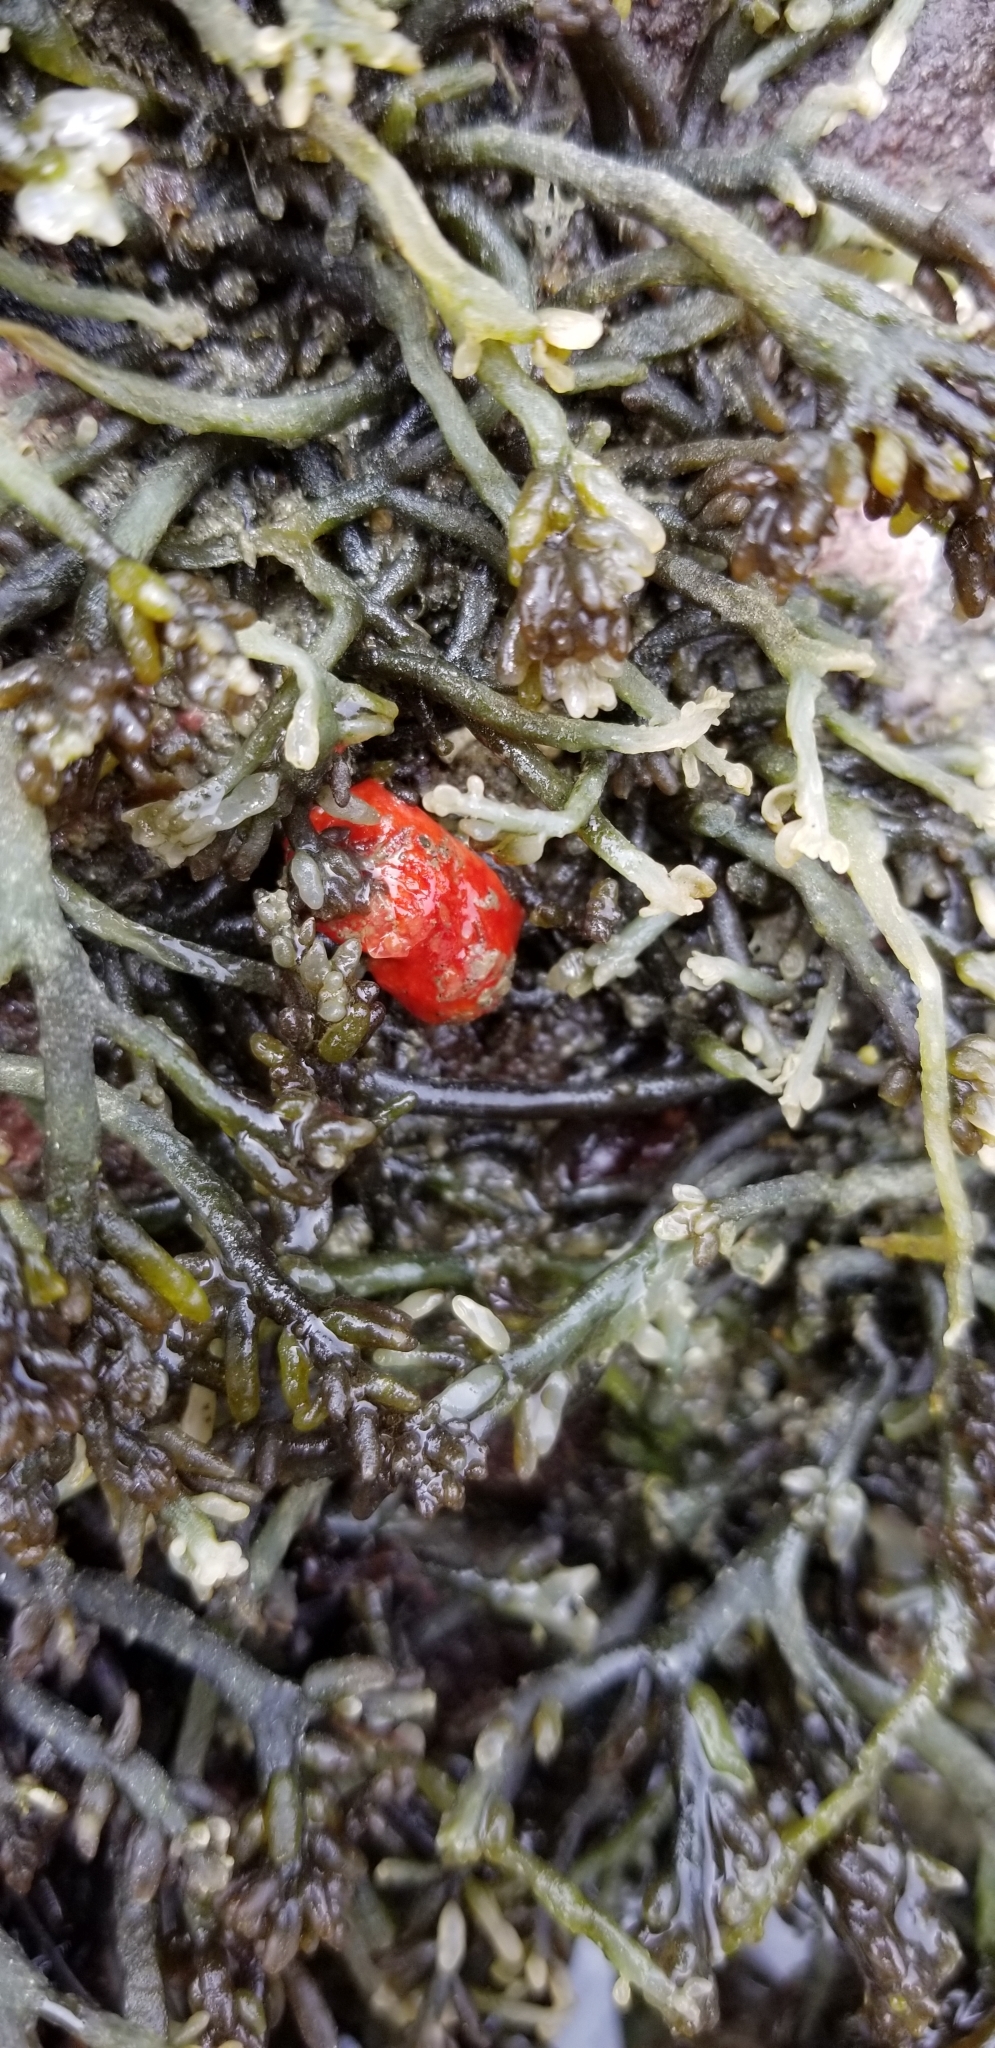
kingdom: Animalia
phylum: Echinodermata
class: Holothuroidea
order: Dendrochirotida
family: Psolidae
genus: Lissothuria
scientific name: Lissothuria nutriens
